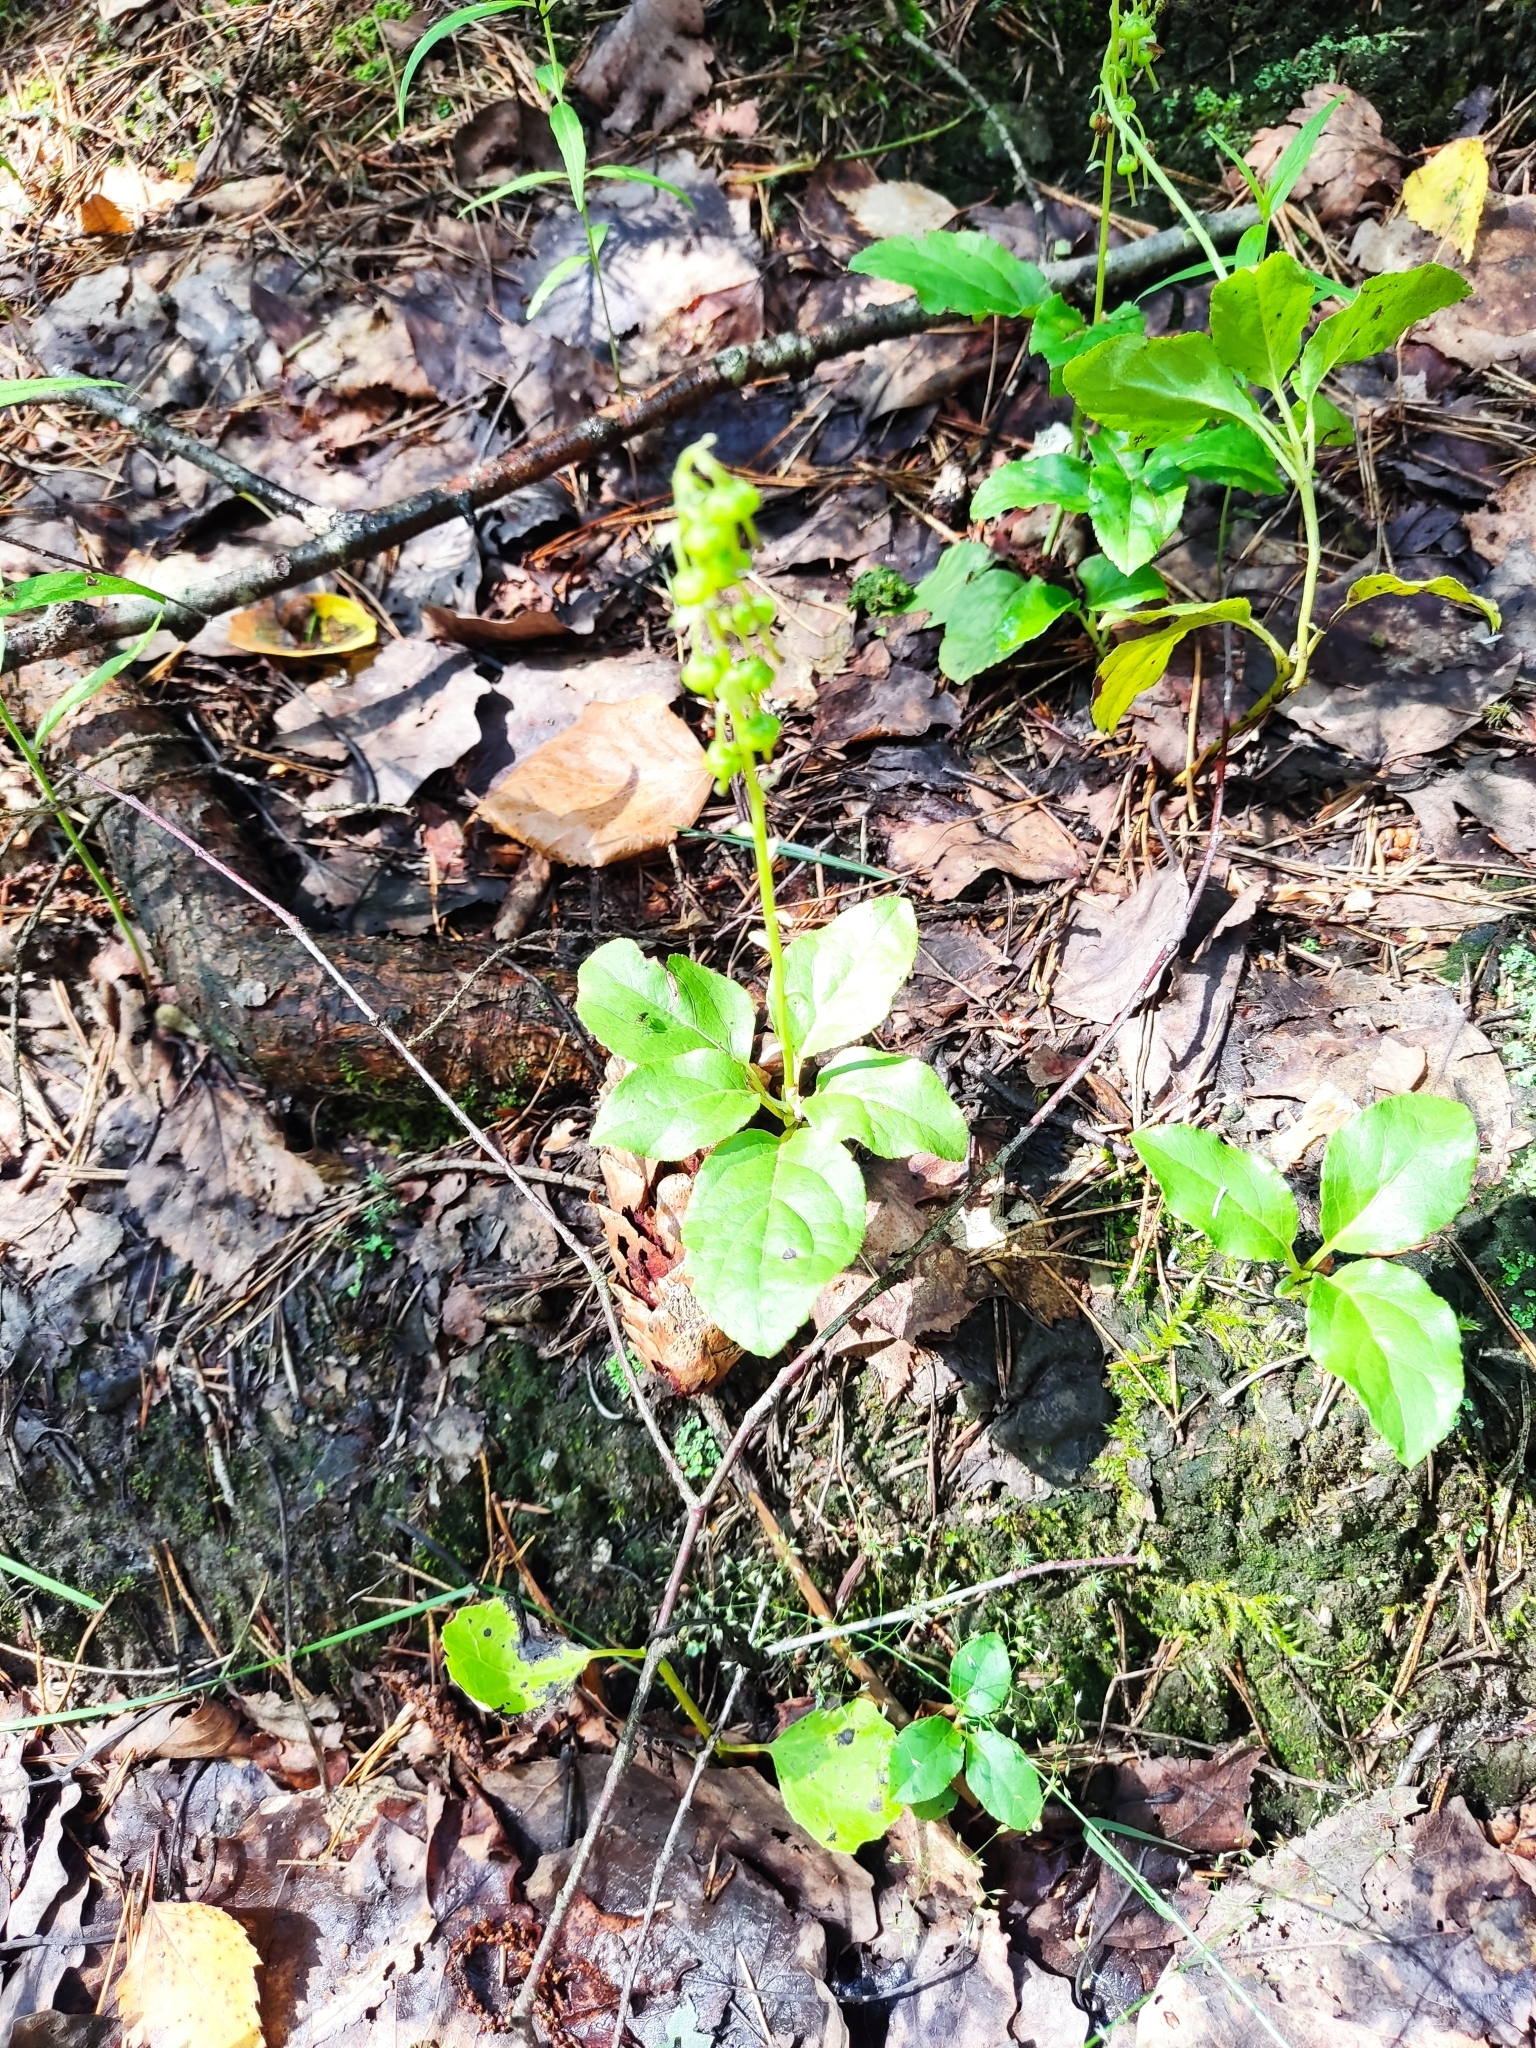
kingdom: Plantae
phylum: Tracheophyta
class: Magnoliopsida
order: Ericales
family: Ericaceae
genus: Orthilia
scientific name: Orthilia secunda
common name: One-sided orthilia
